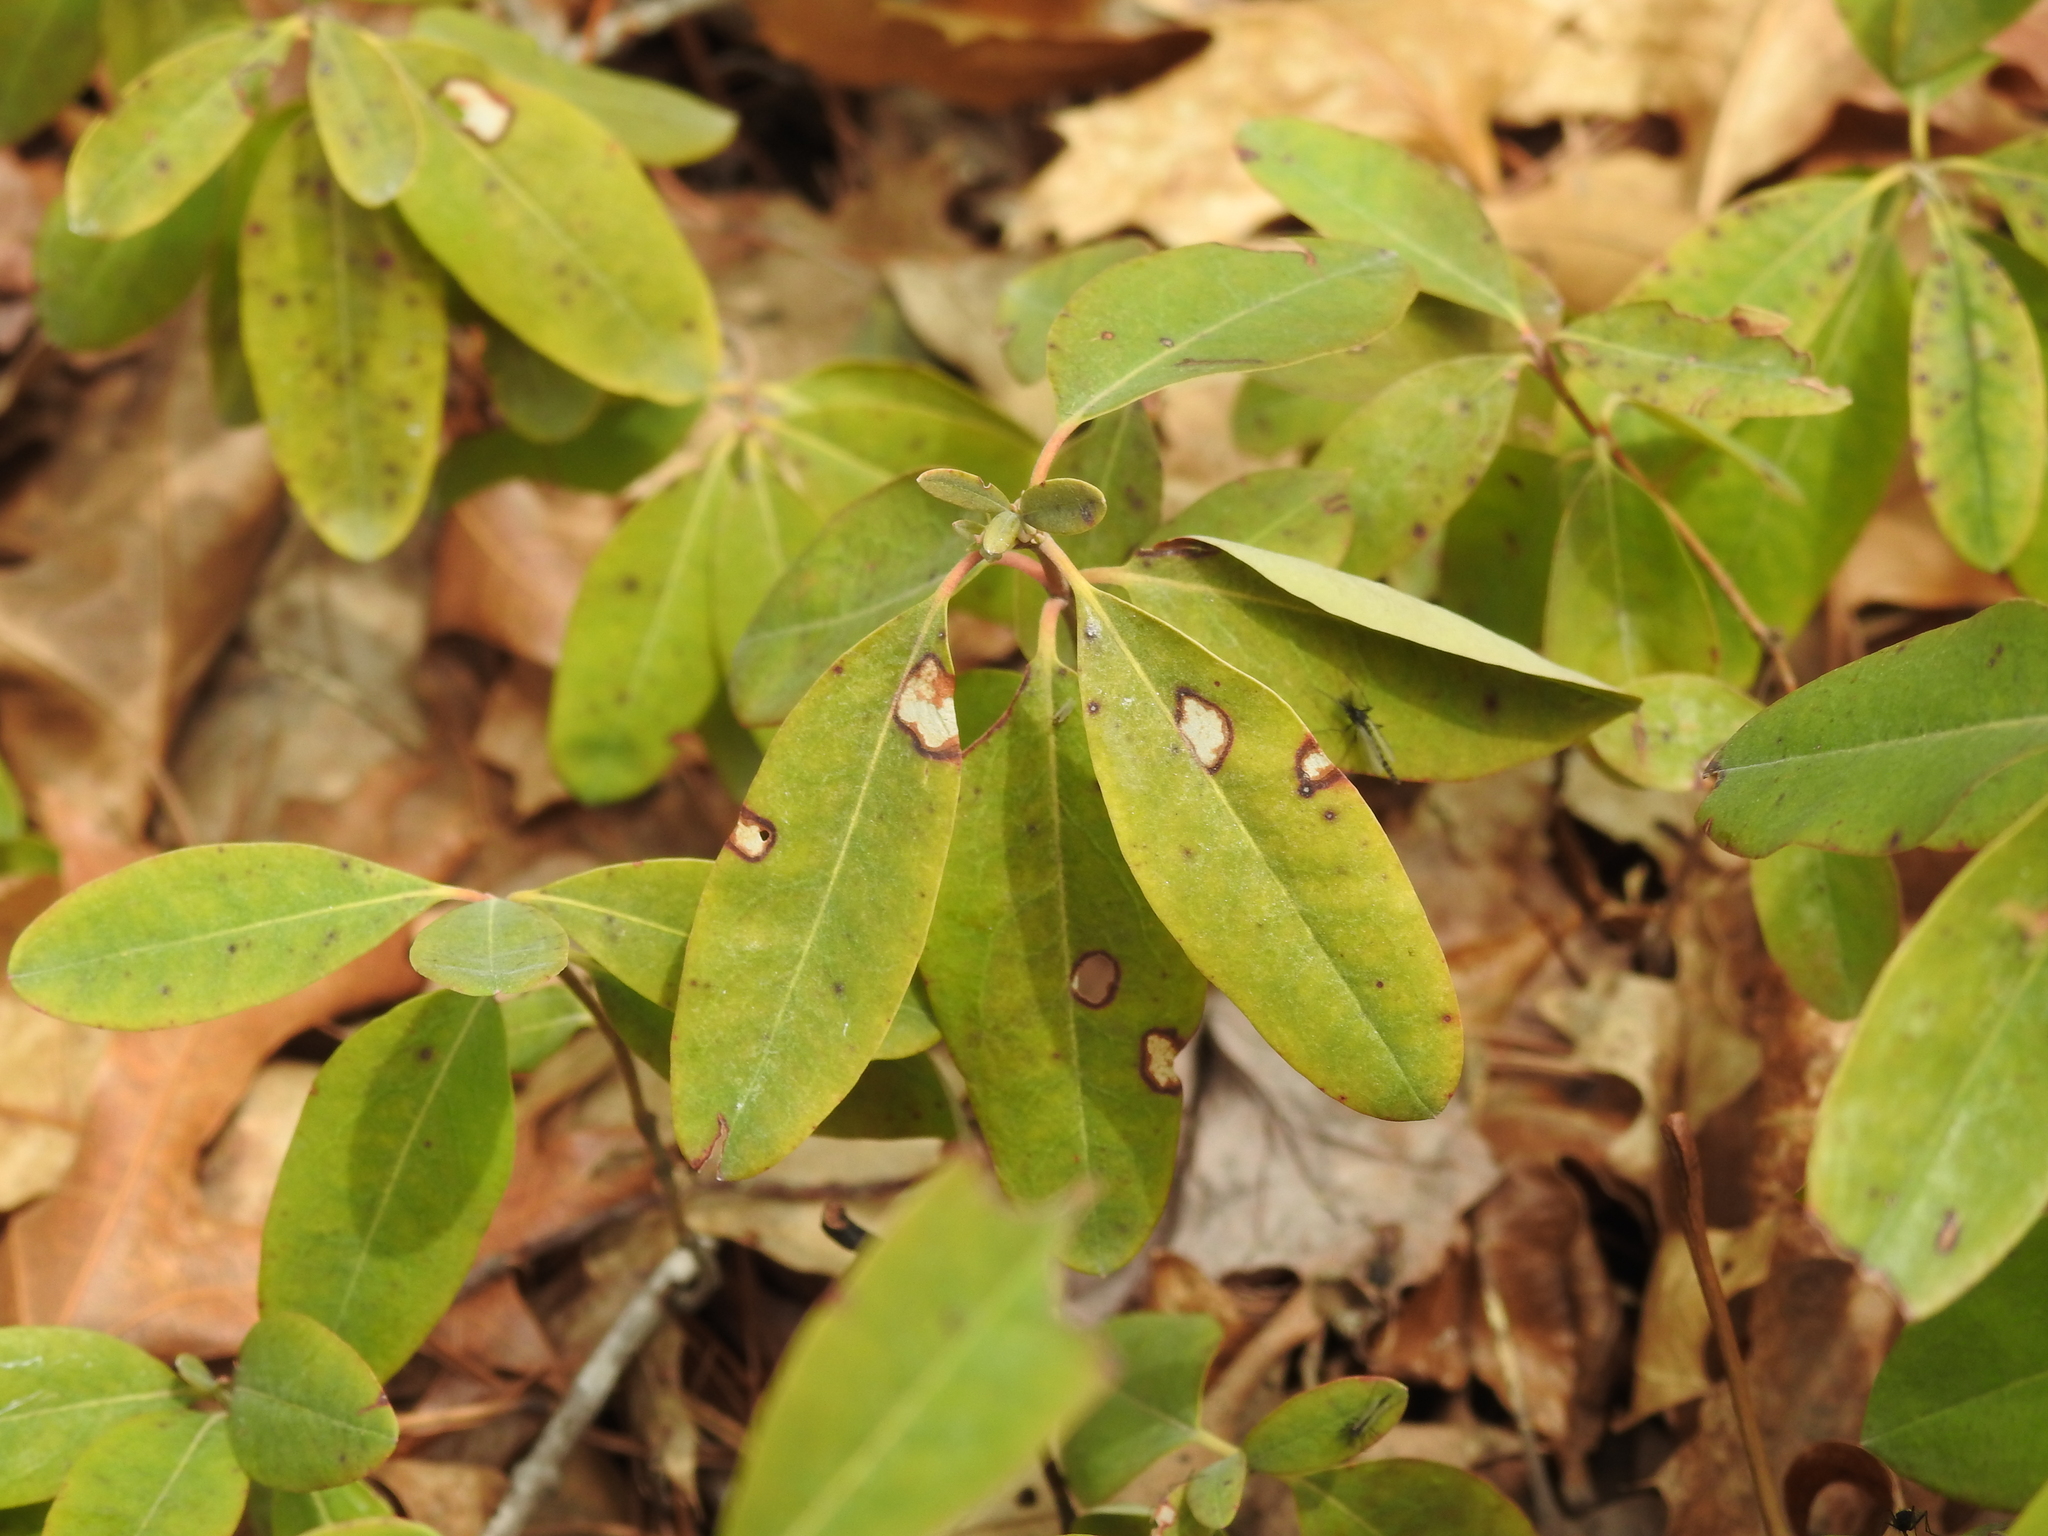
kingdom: Plantae
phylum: Tracheophyta
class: Magnoliopsida
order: Ericales
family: Ericaceae
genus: Kalmia
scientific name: Kalmia angustifolia
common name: Sheep-laurel
